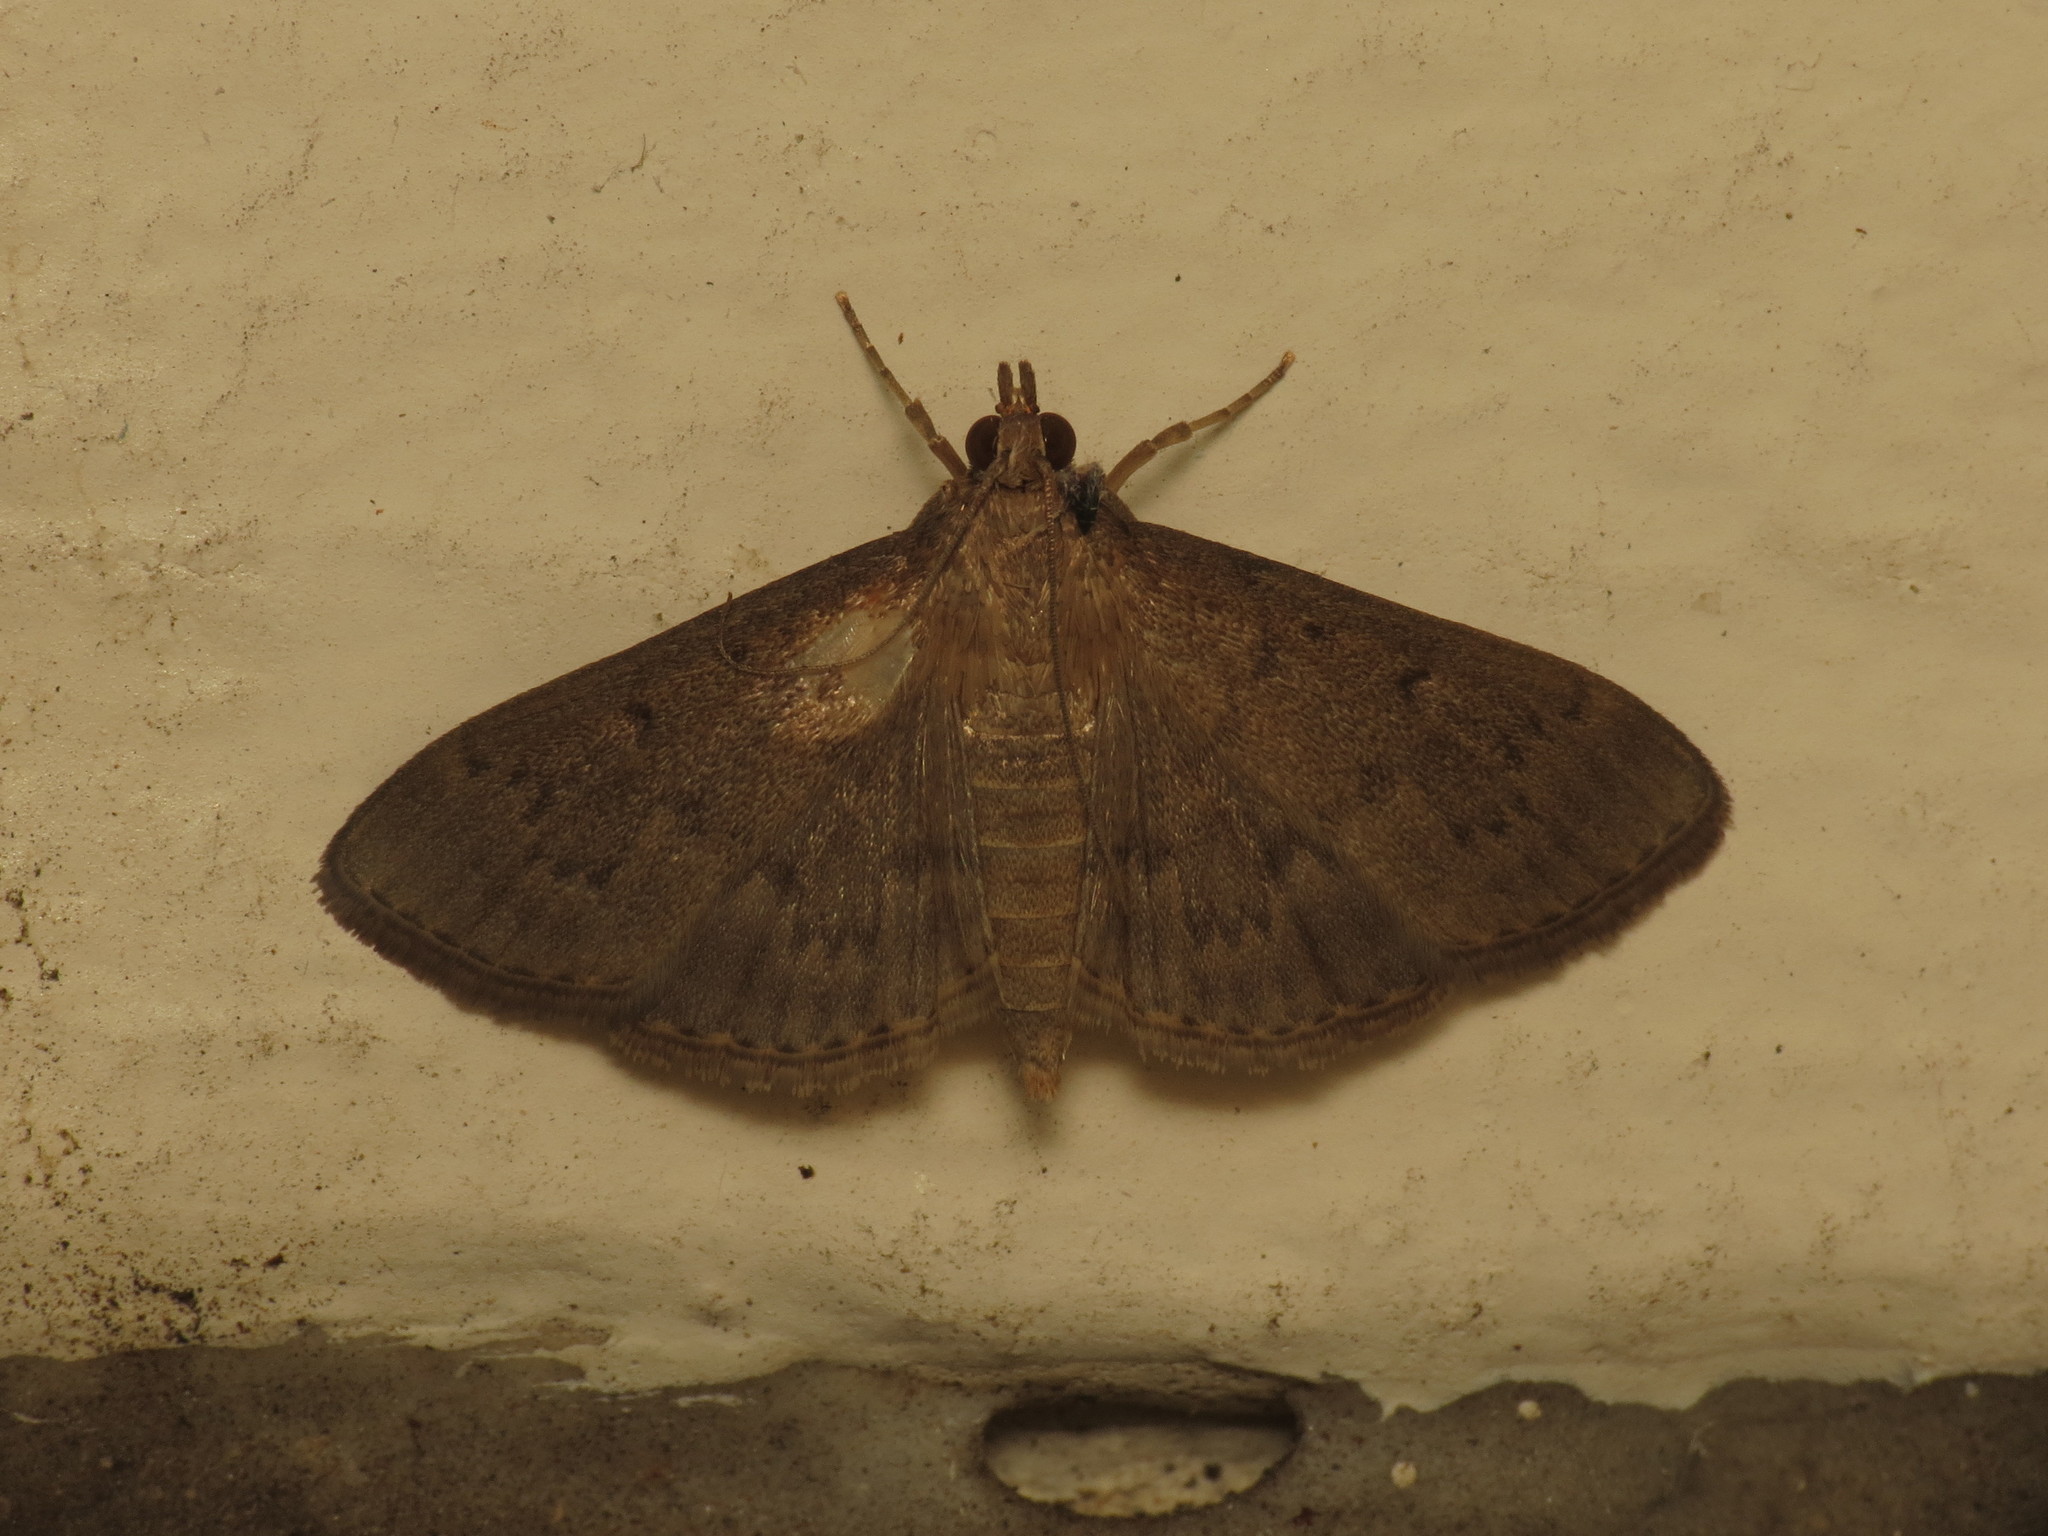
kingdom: Animalia
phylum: Arthropoda
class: Insecta
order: Lepidoptera
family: Crambidae
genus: Herpetogramma
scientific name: Herpetogramma licarsisalis
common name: Grass webworm
